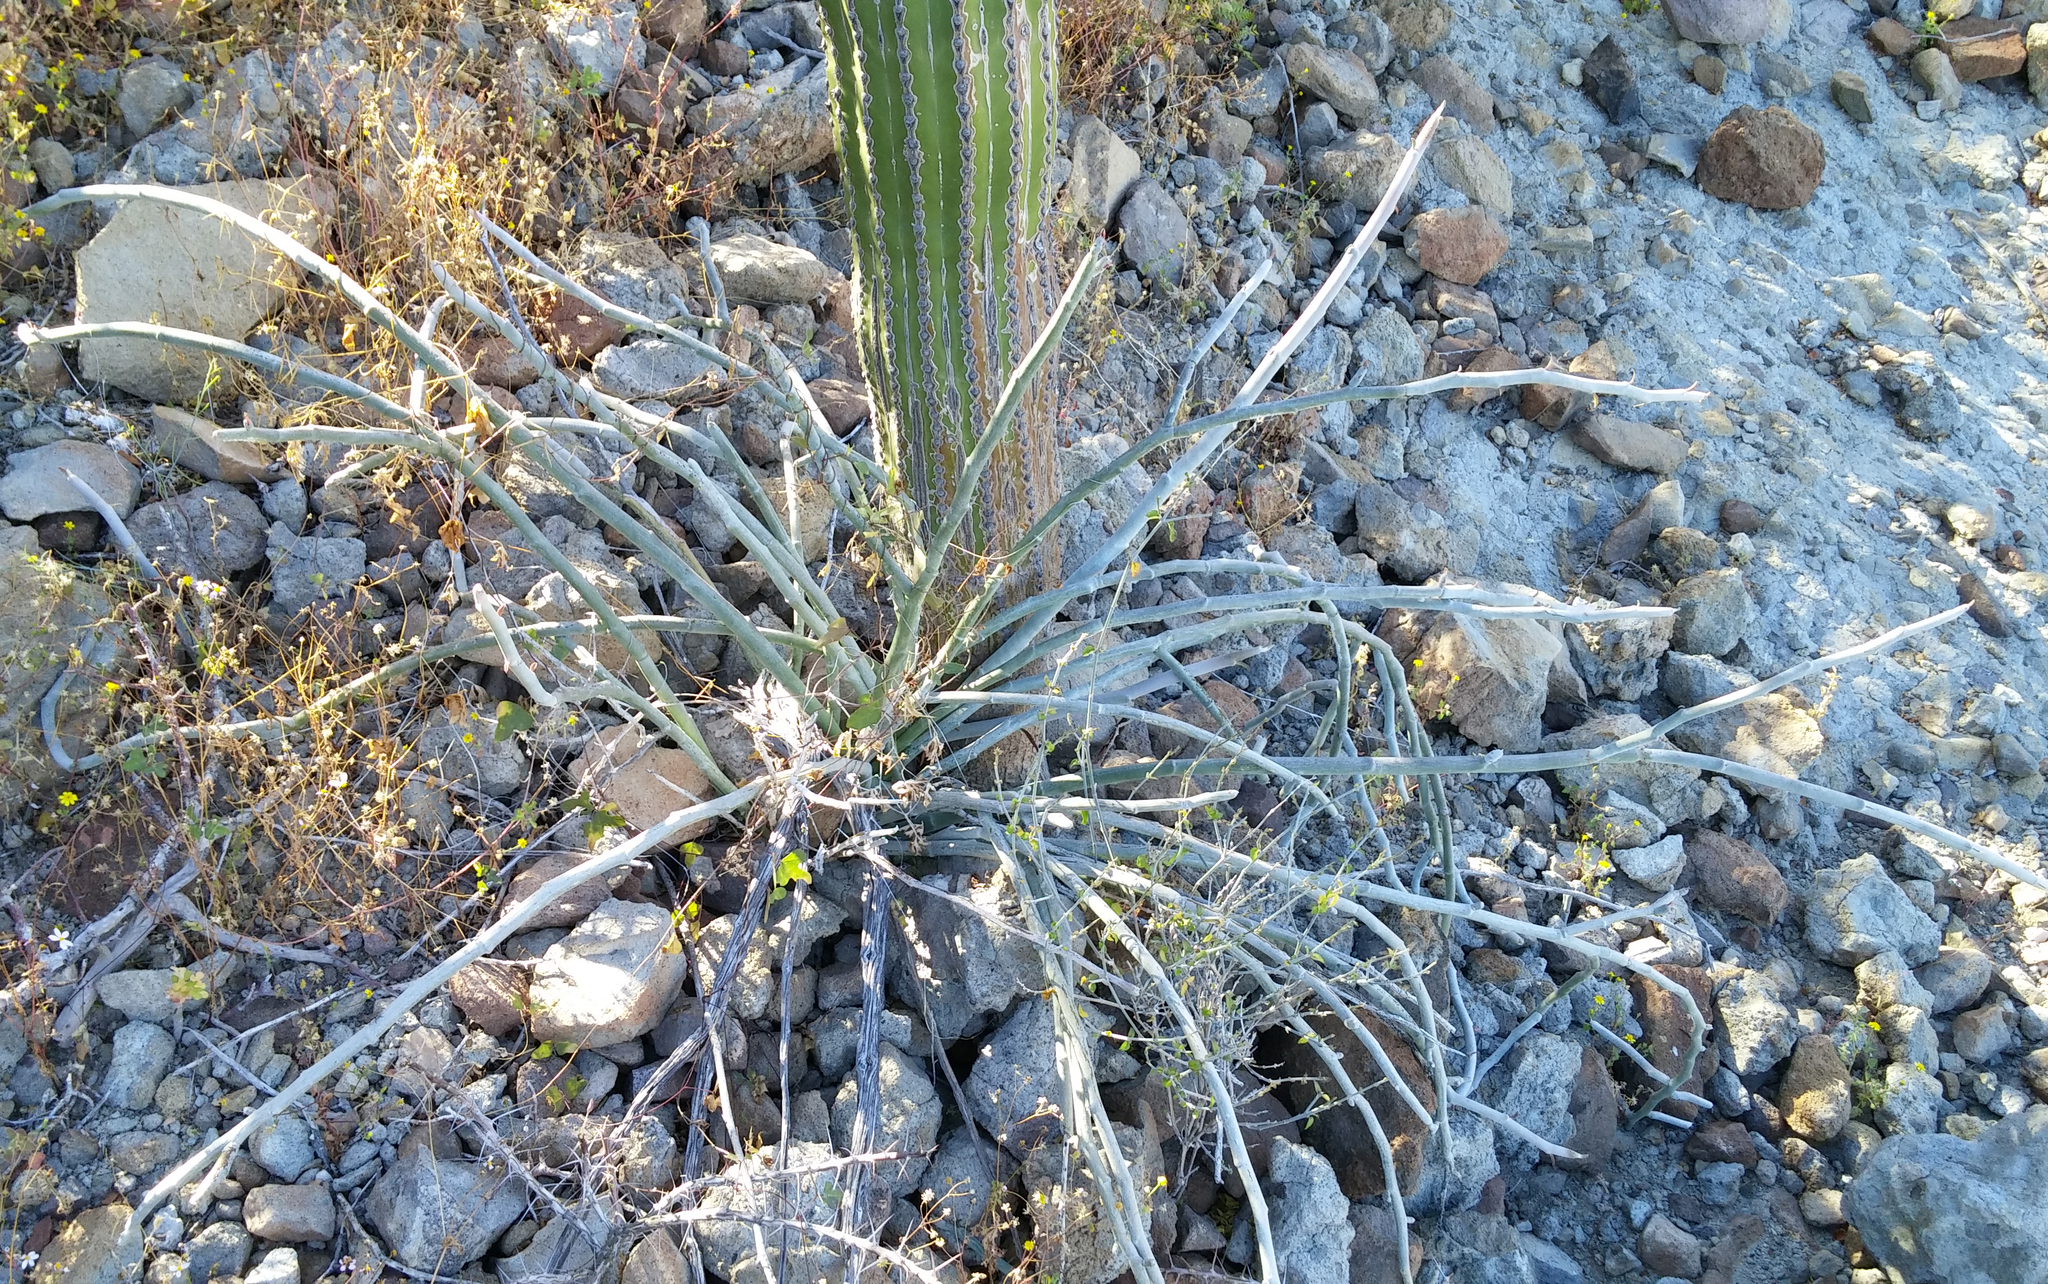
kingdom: Plantae
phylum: Tracheophyta
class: Magnoliopsida
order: Malpighiales
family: Euphorbiaceae
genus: Euphorbia
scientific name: Euphorbia lomelii
